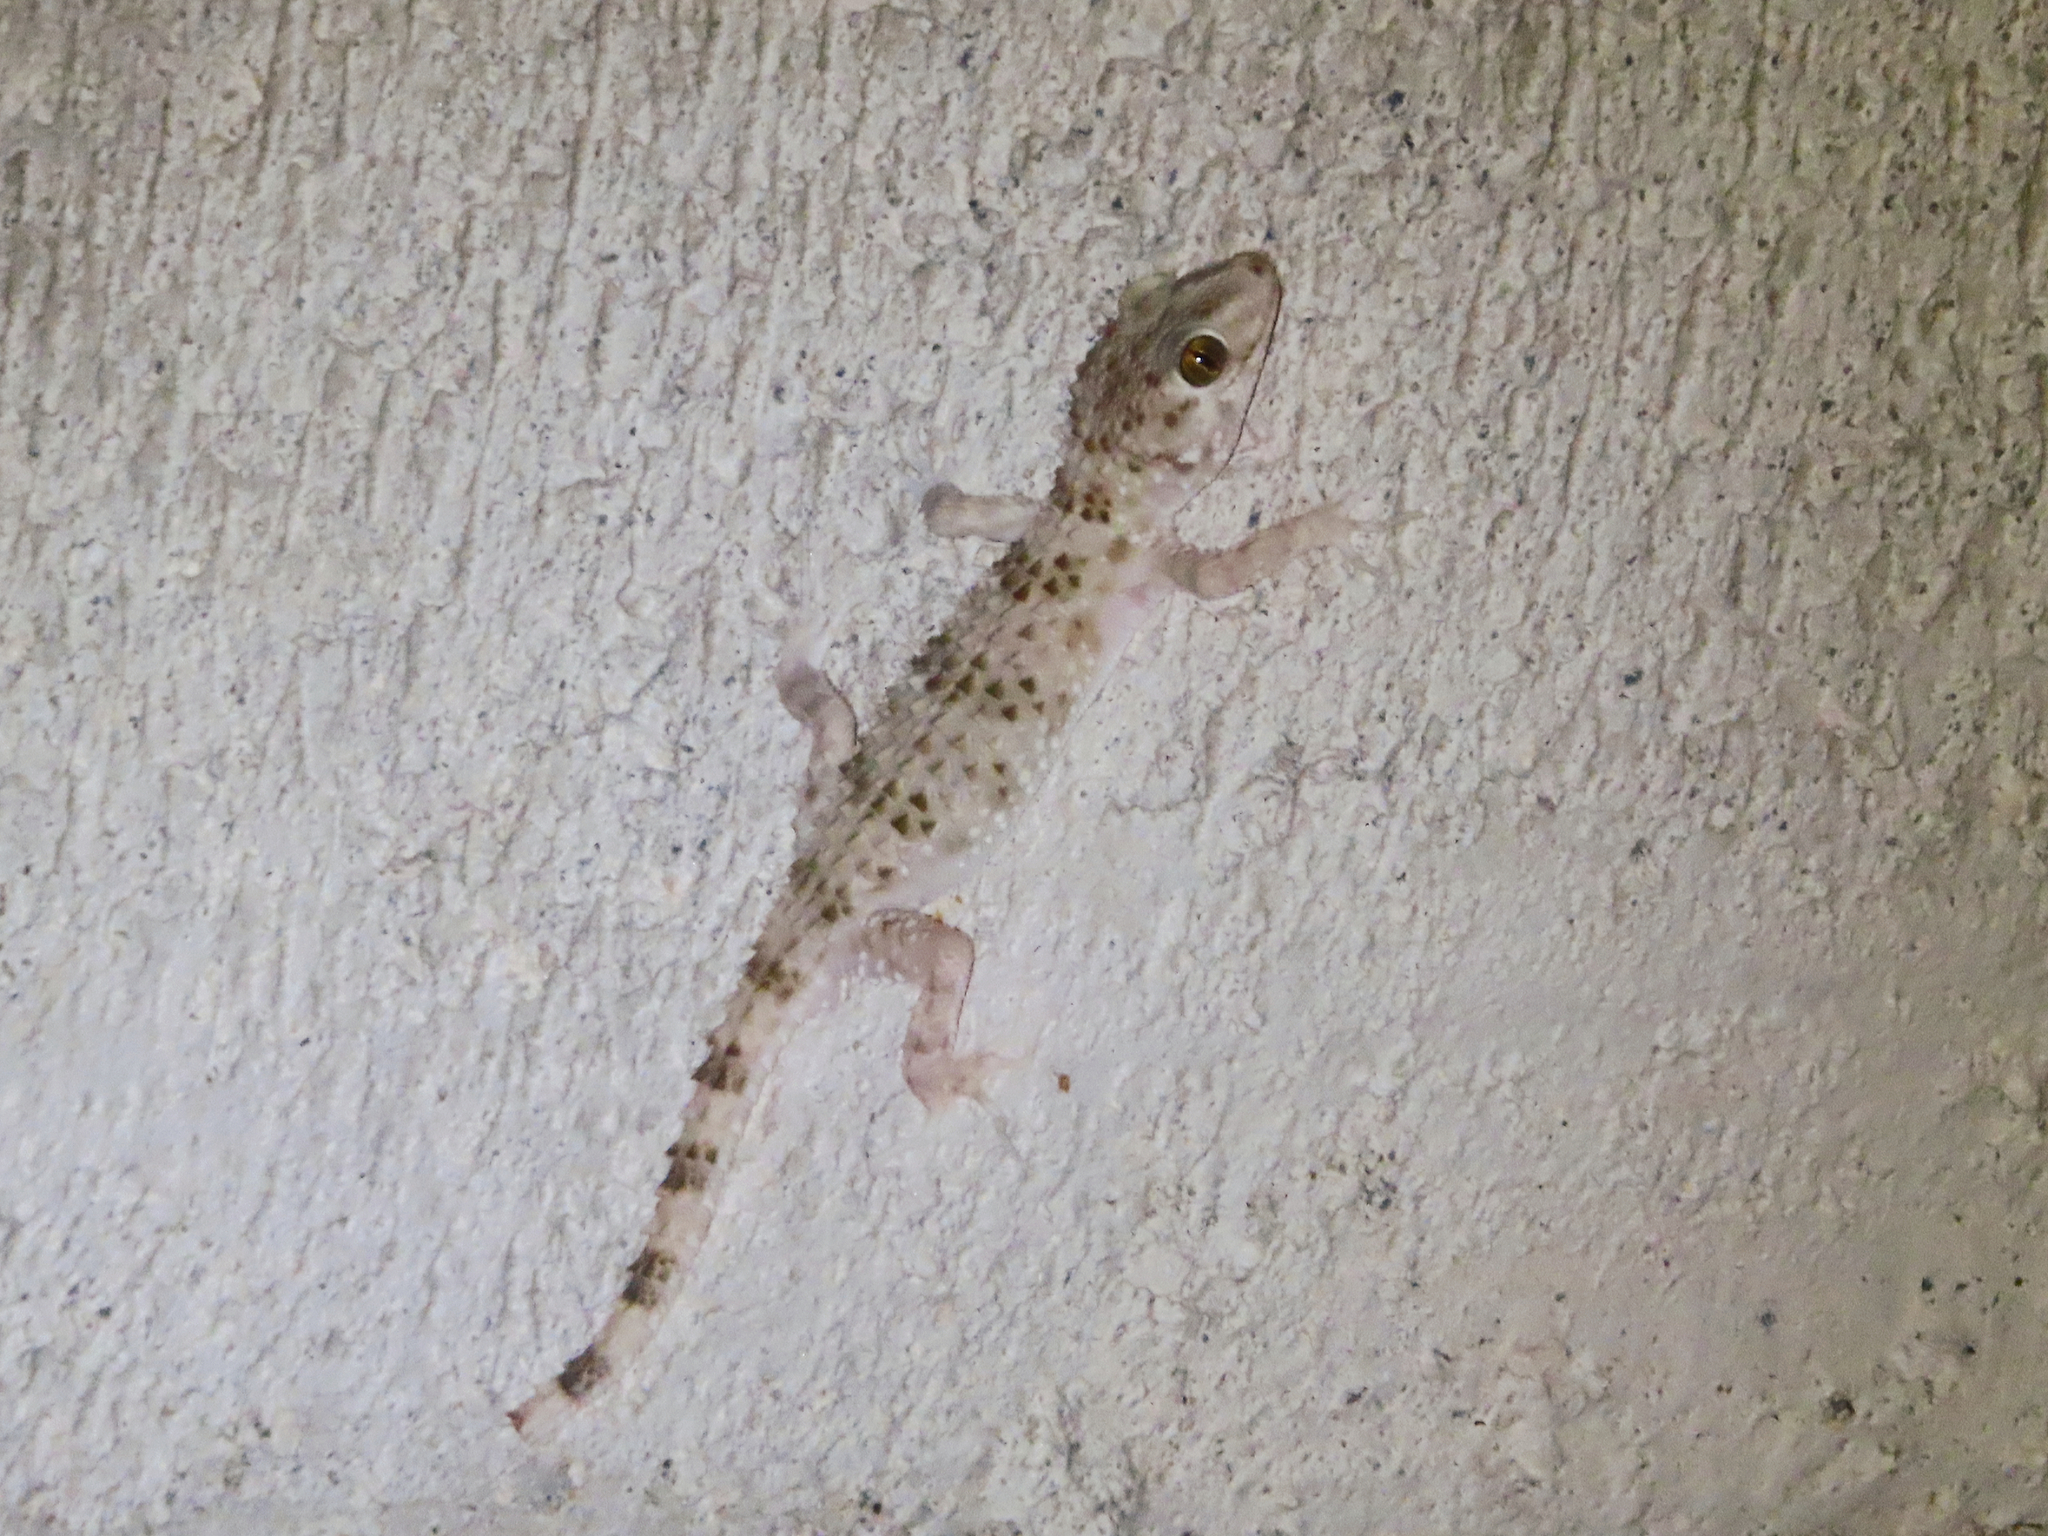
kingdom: Animalia
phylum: Chordata
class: Squamata
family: Gekkonidae
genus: Tenuidactylus
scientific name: Tenuidactylus caspius
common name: Caspian bent-toed gecko
